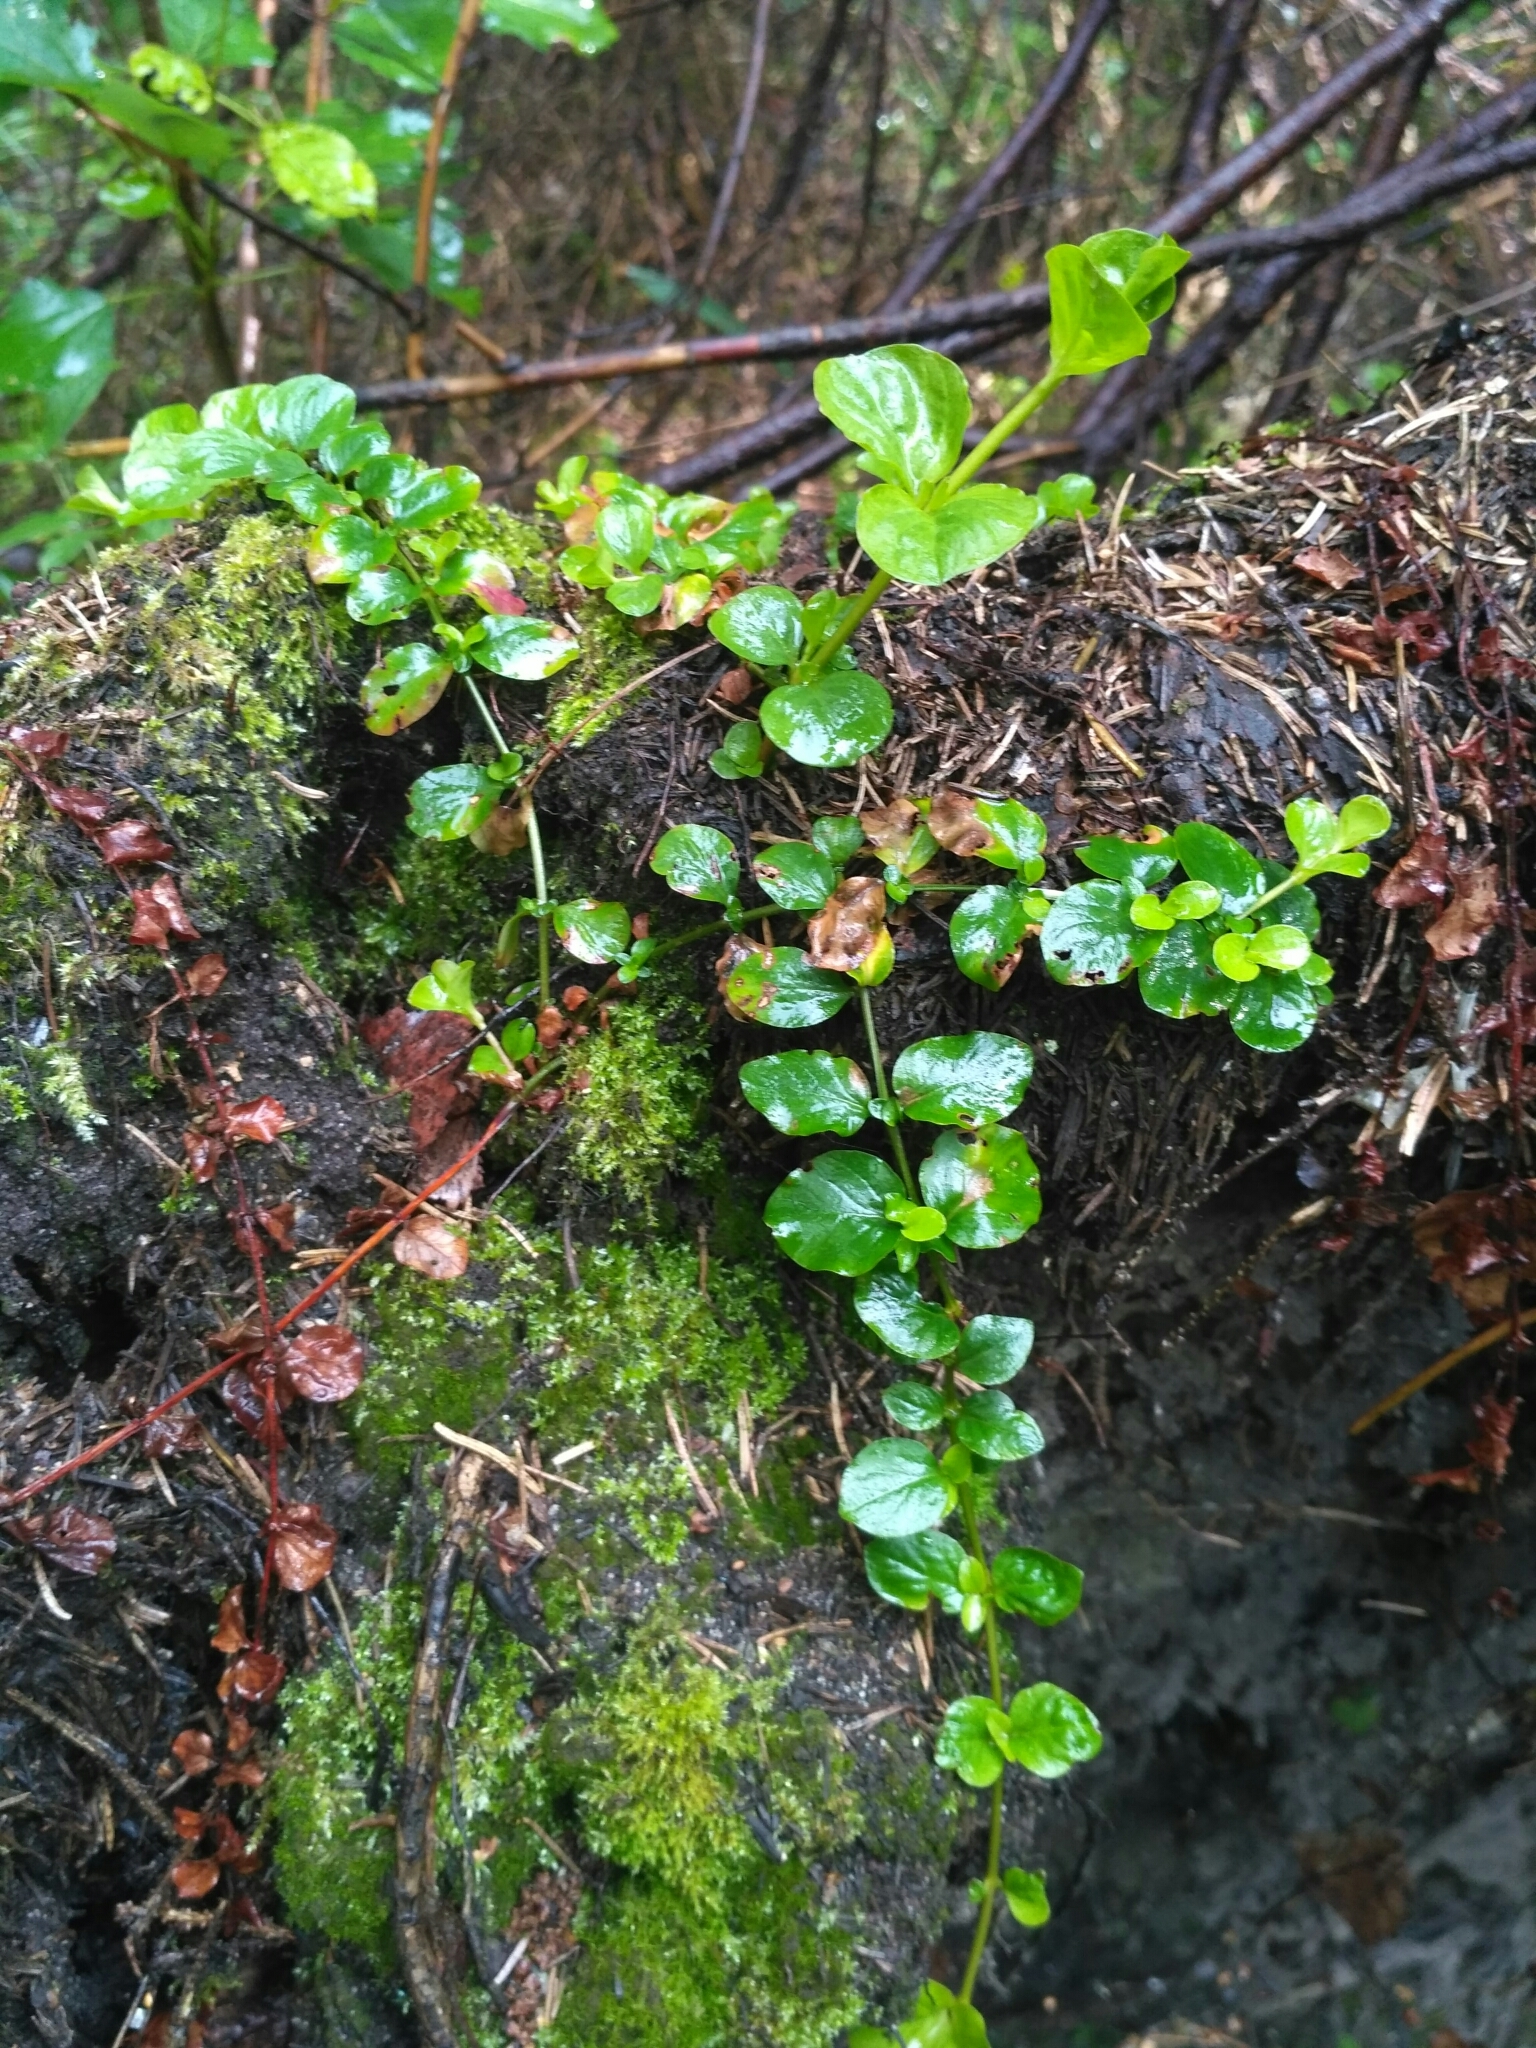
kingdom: Plantae
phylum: Tracheophyta
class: Magnoliopsida
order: Ericales
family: Primulaceae
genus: Lysimachia
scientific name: Lysimachia nummularia
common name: Moneywort
